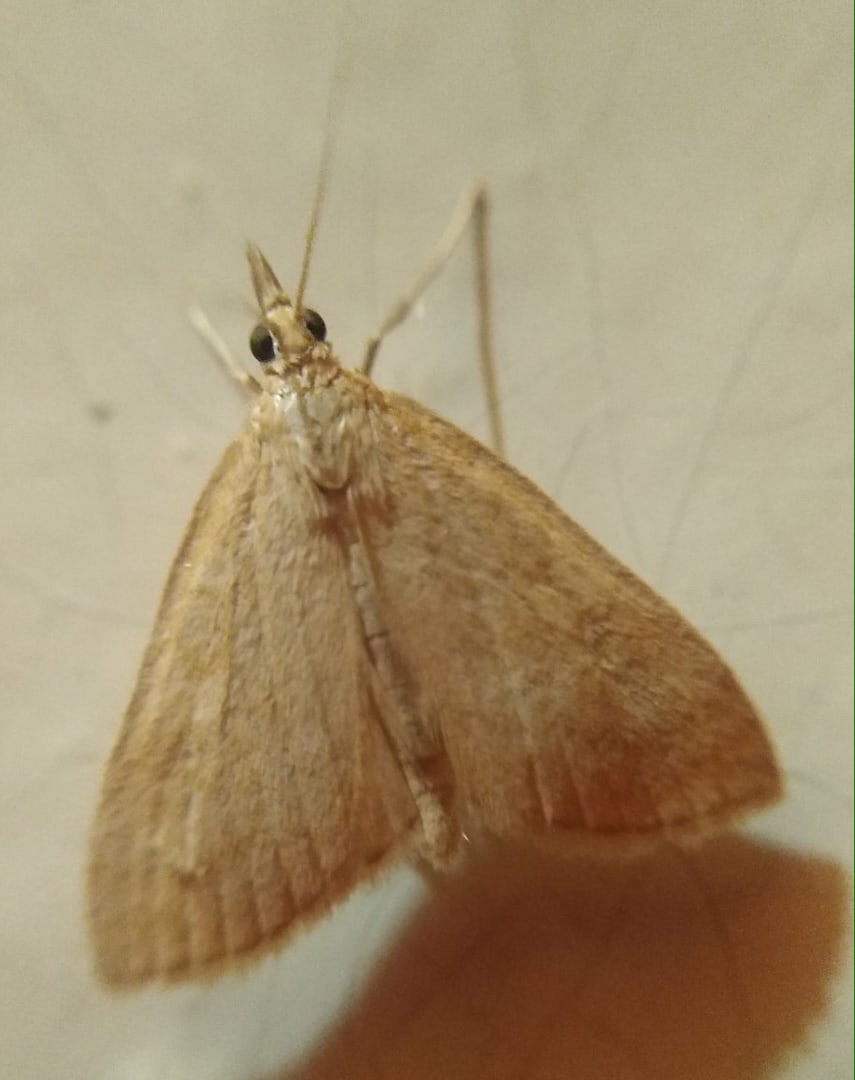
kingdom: Animalia
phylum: Arthropoda
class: Insecta
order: Lepidoptera
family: Crambidae
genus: Udea
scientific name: Udea accolalis
